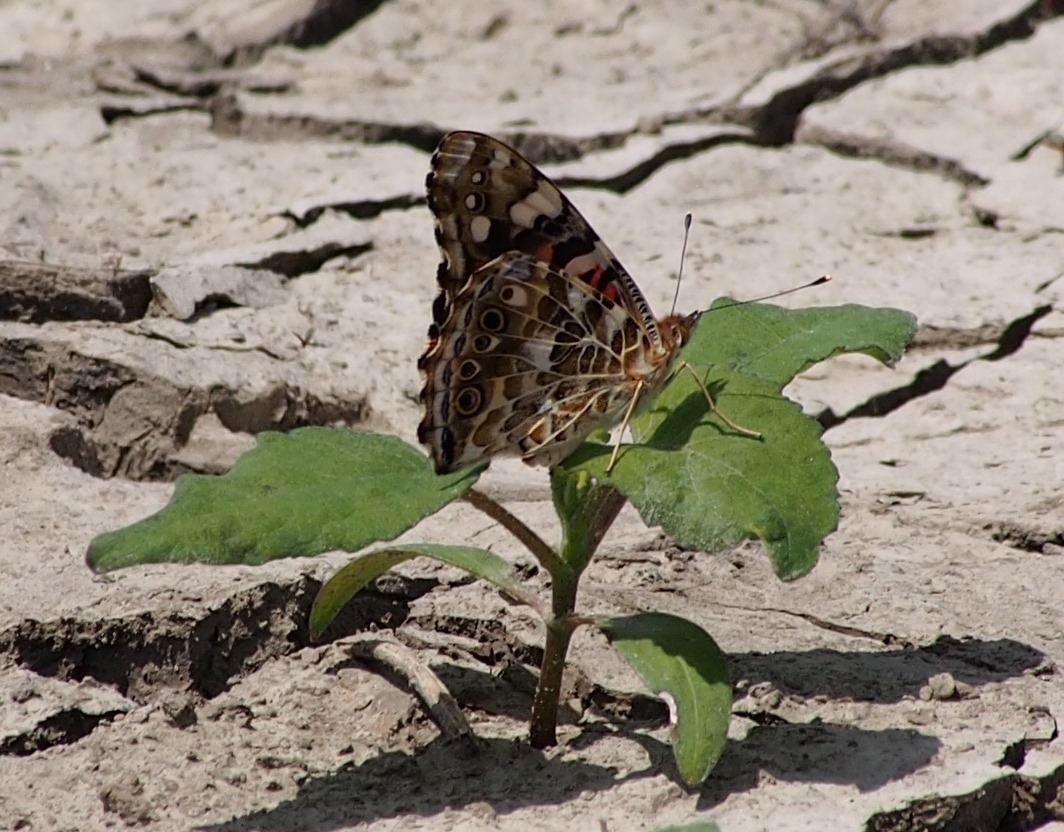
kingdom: Animalia
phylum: Arthropoda
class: Insecta
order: Lepidoptera
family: Nymphalidae
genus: Vanessa
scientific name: Vanessa cardui
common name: Painted lady
